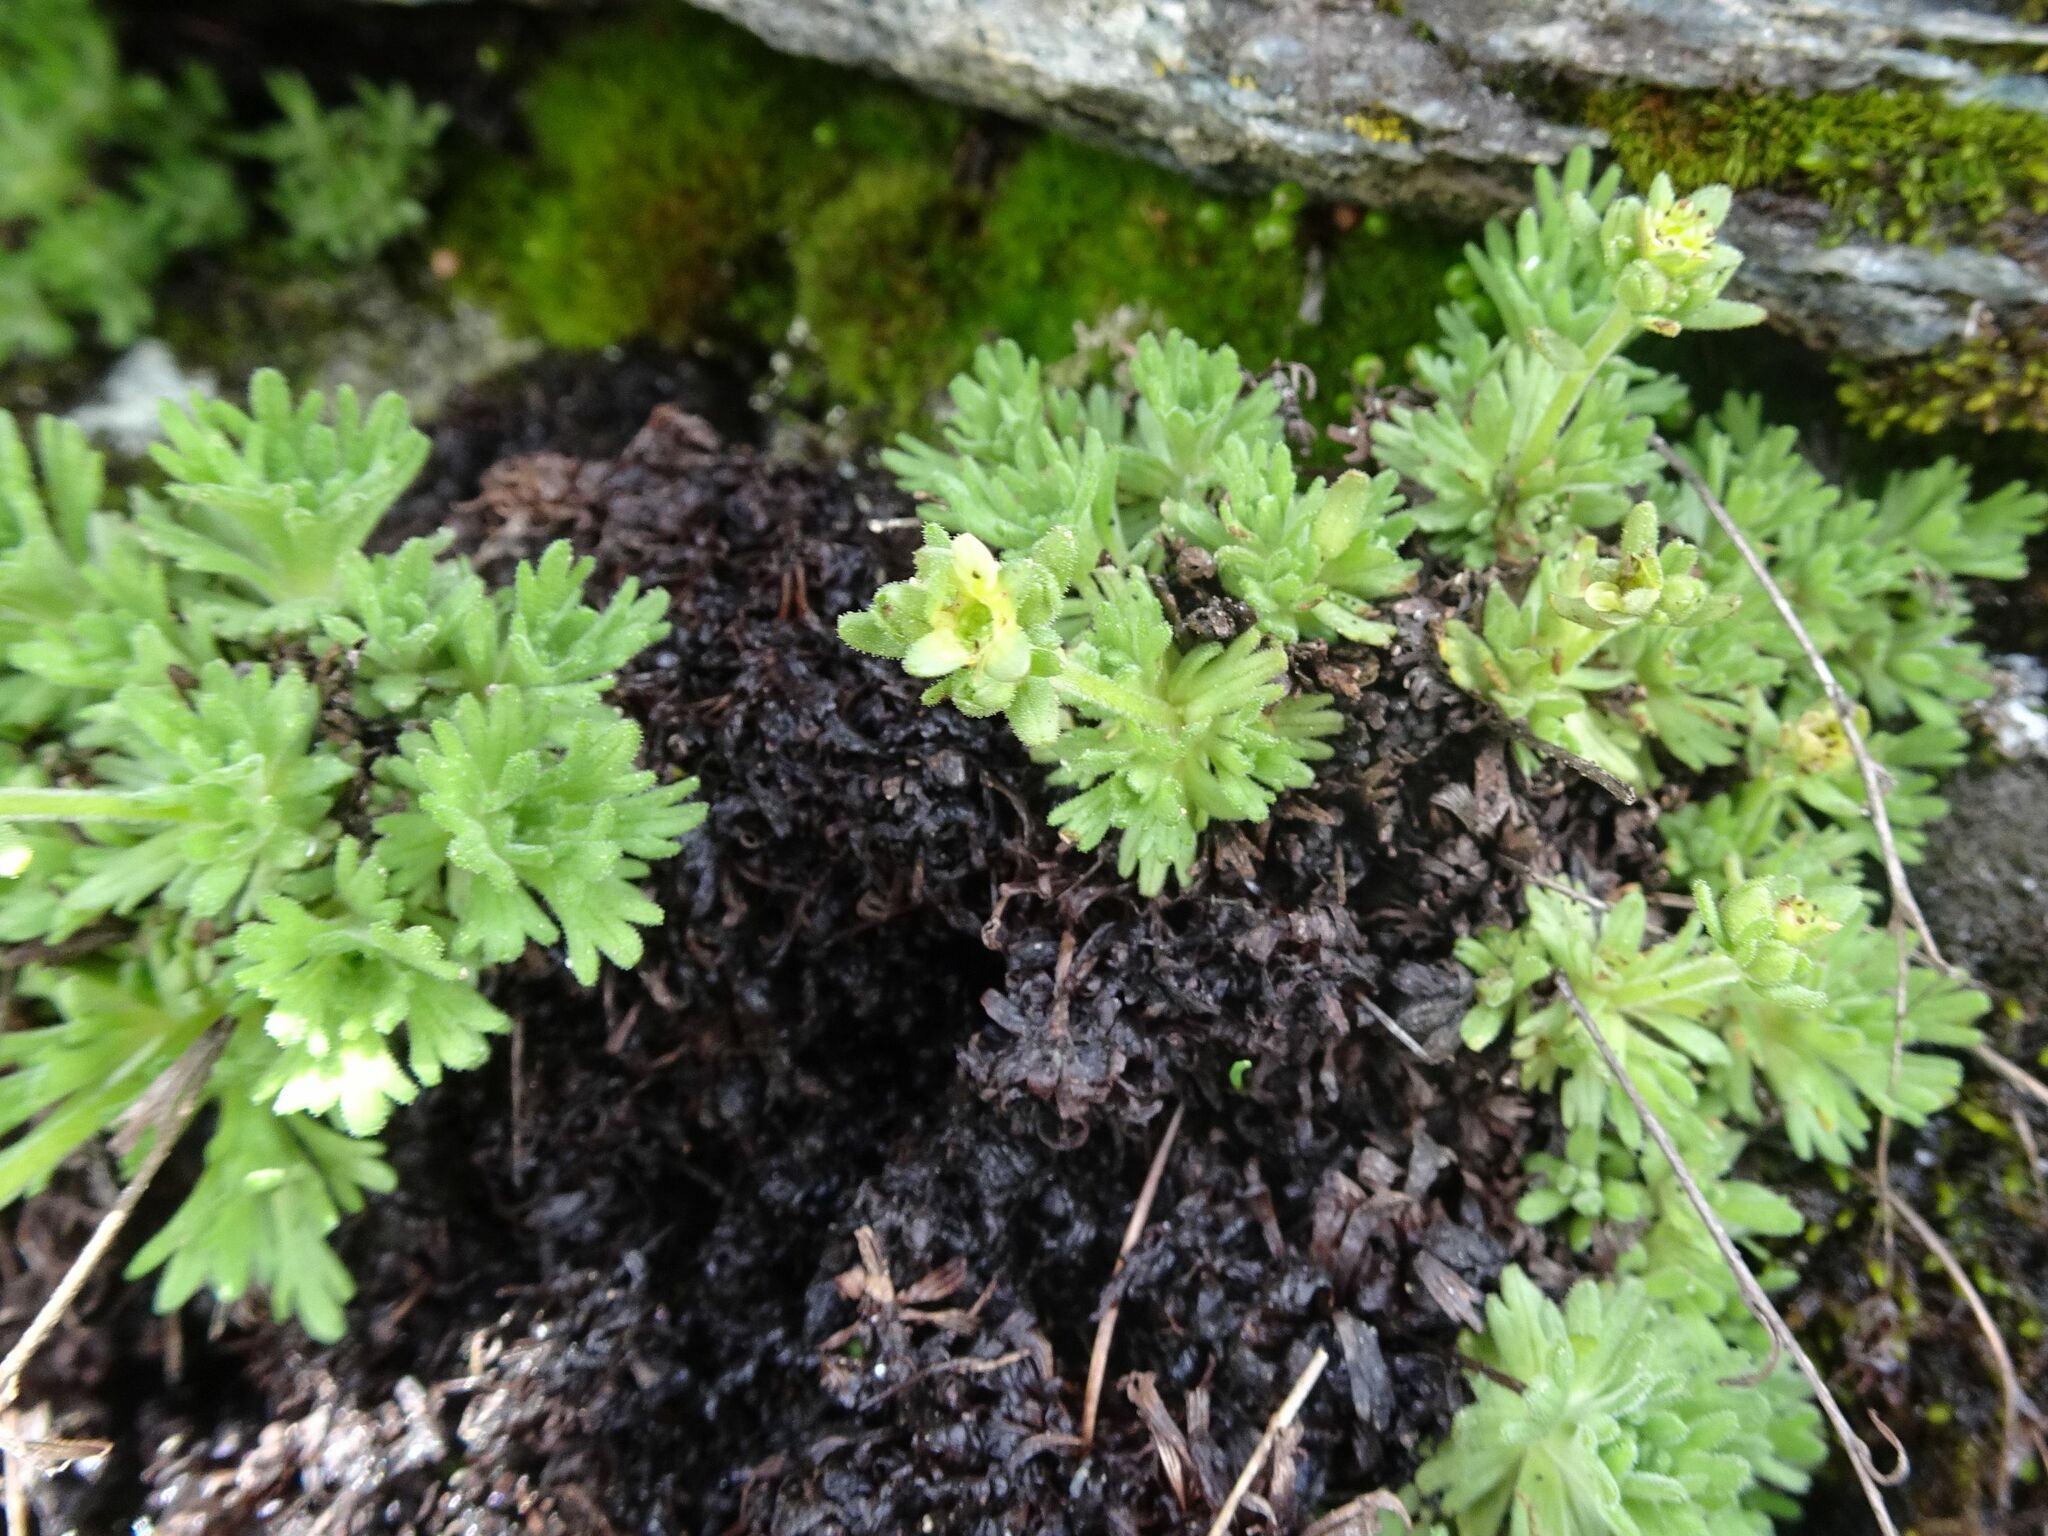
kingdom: Plantae
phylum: Tracheophyta
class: Magnoliopsida
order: Saxifragales
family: Saxifragaceae
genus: Saxifraga
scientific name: Saxifraga exarata
